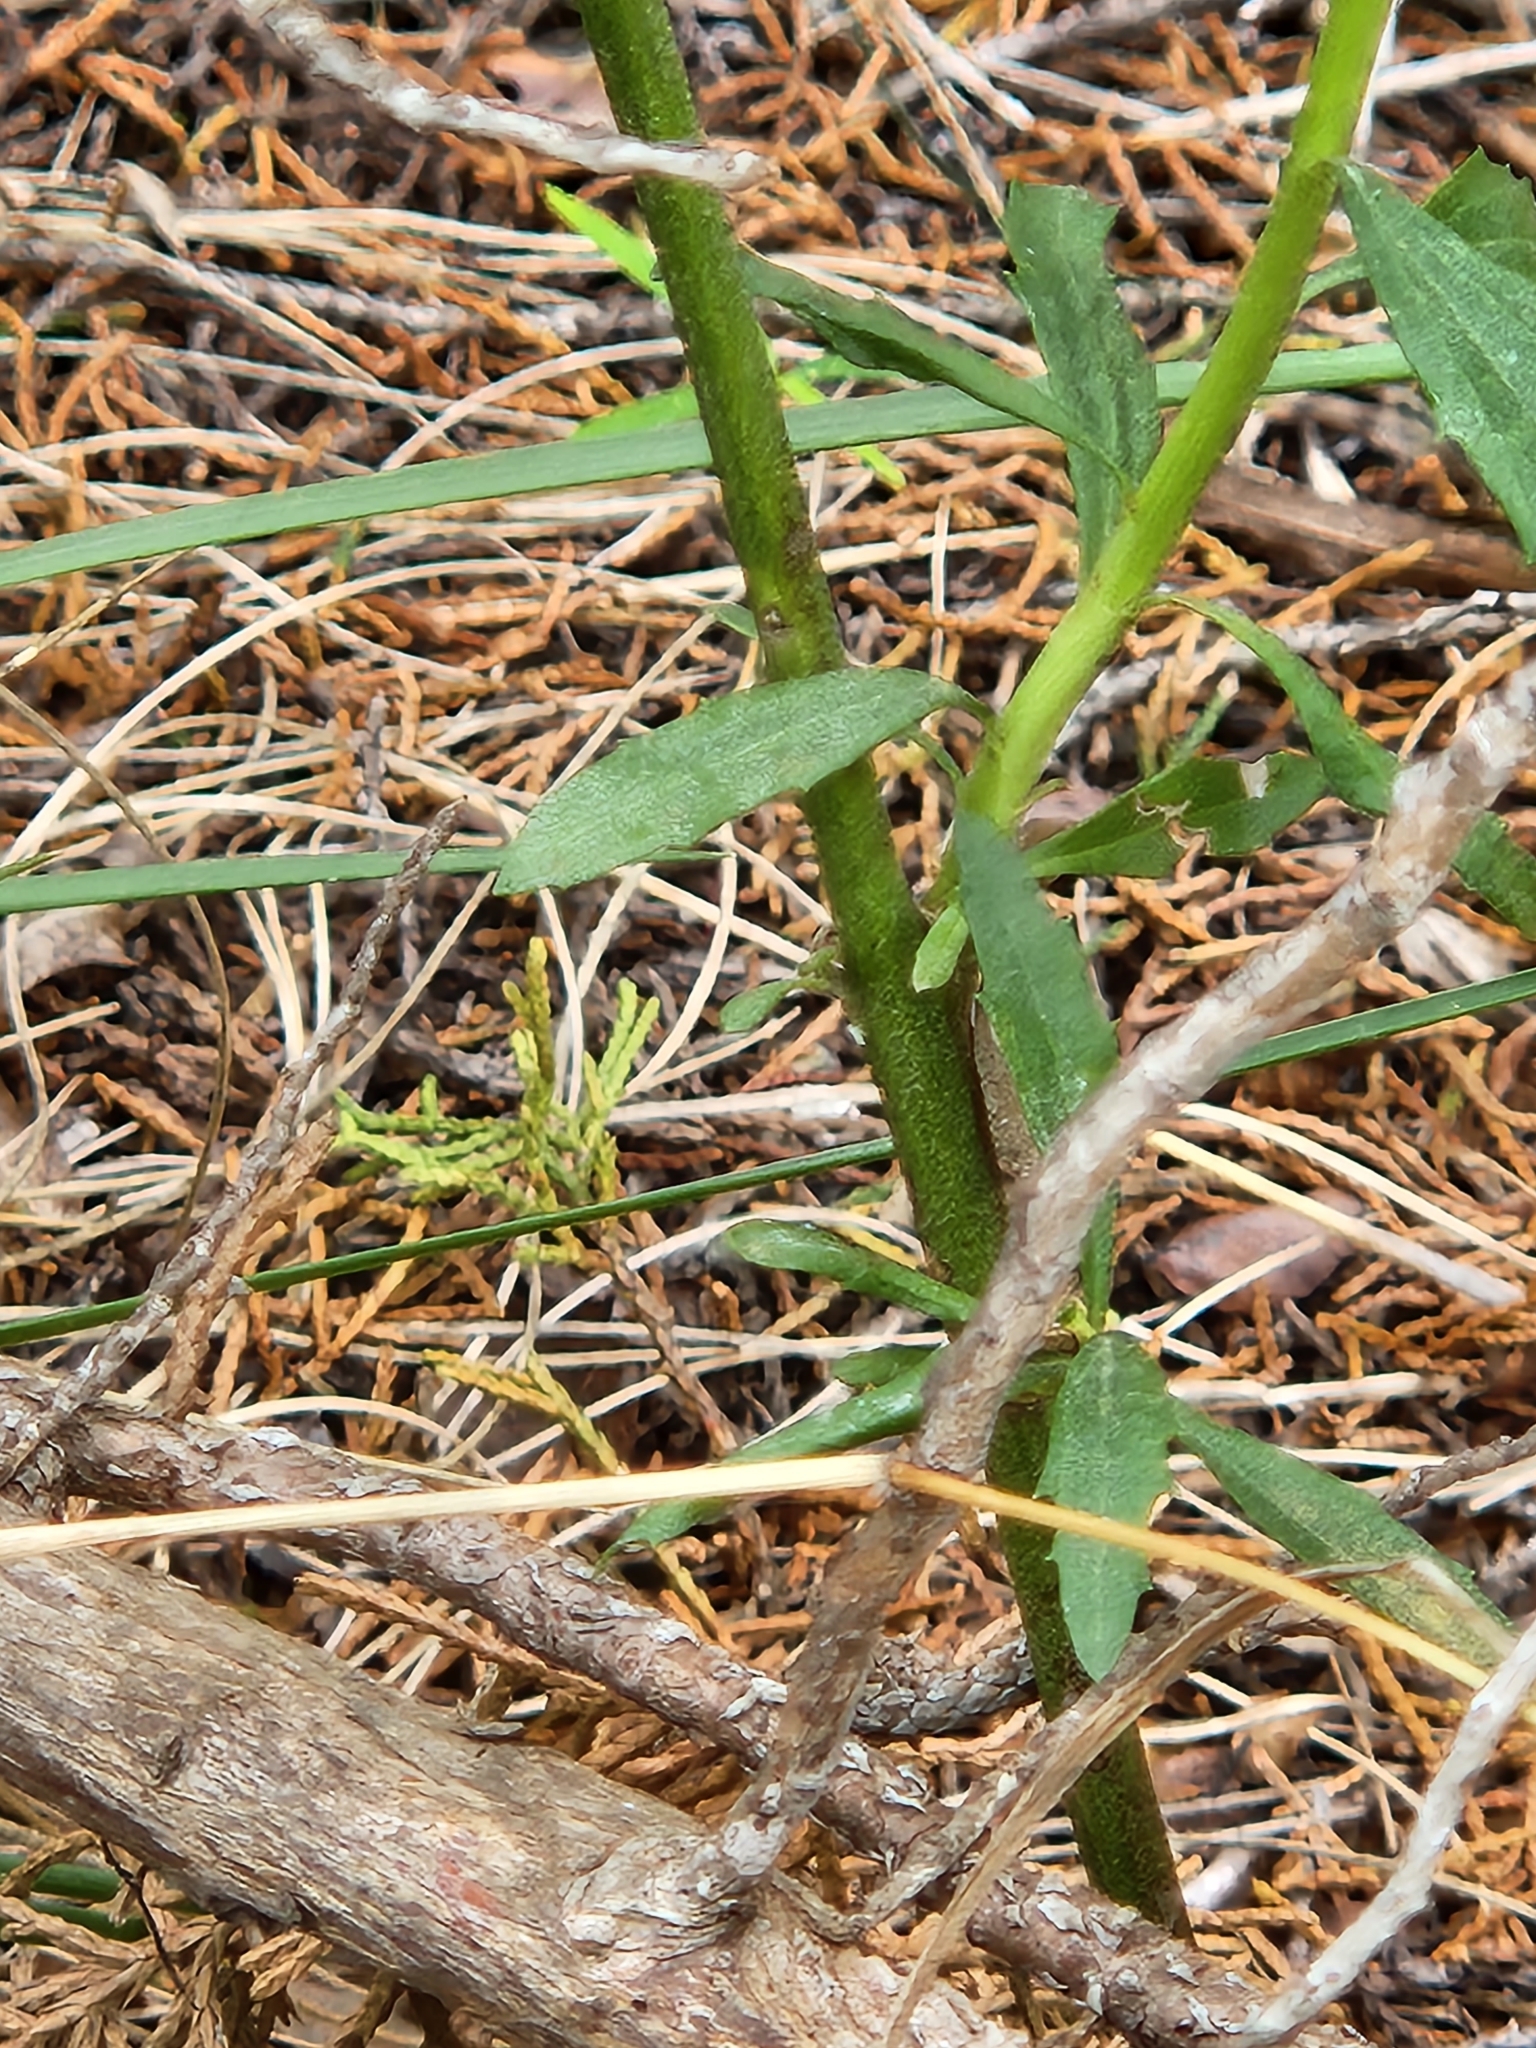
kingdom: Plantae
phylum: Tracheophyta
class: Magnoliopsida
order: Asterales
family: Asteraceae
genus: Baccharis
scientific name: Baccharis neglecta
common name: Roosevelt-weed
